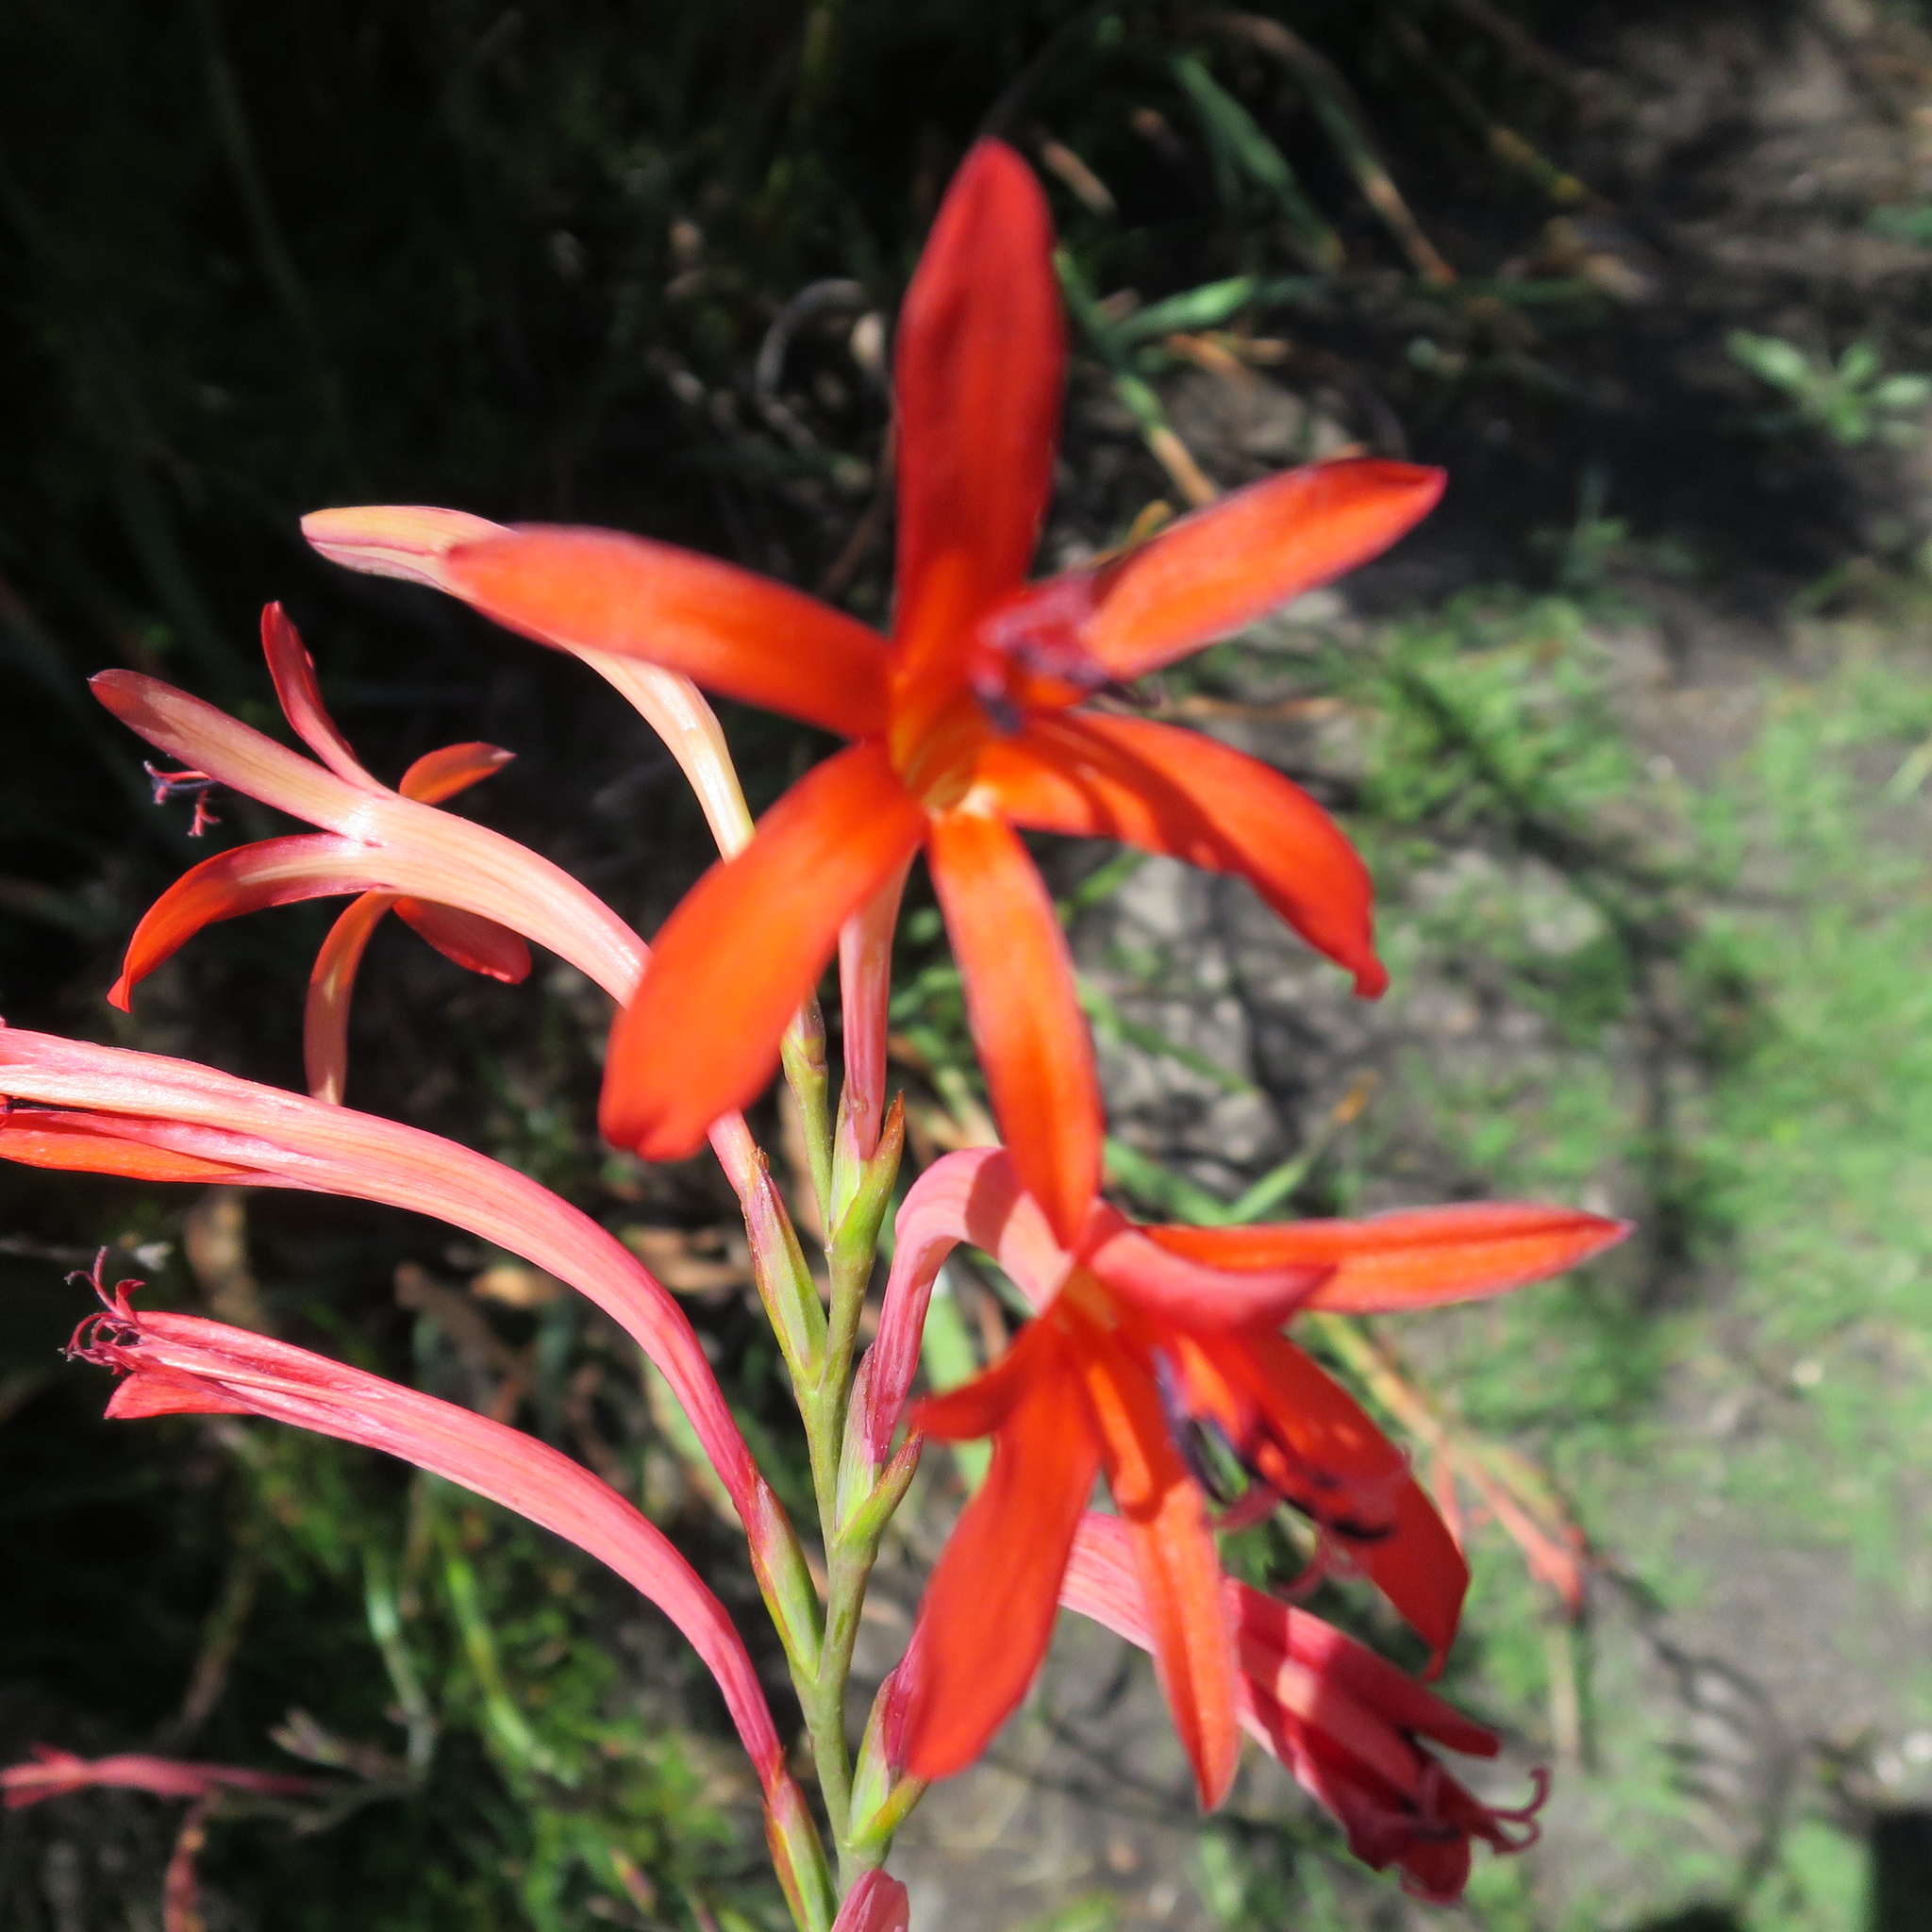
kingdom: Plantae
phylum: Tracheophyta
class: Liliopsida
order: Asparagales
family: Iridaceae
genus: Watsonia
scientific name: Watsonia angusta
